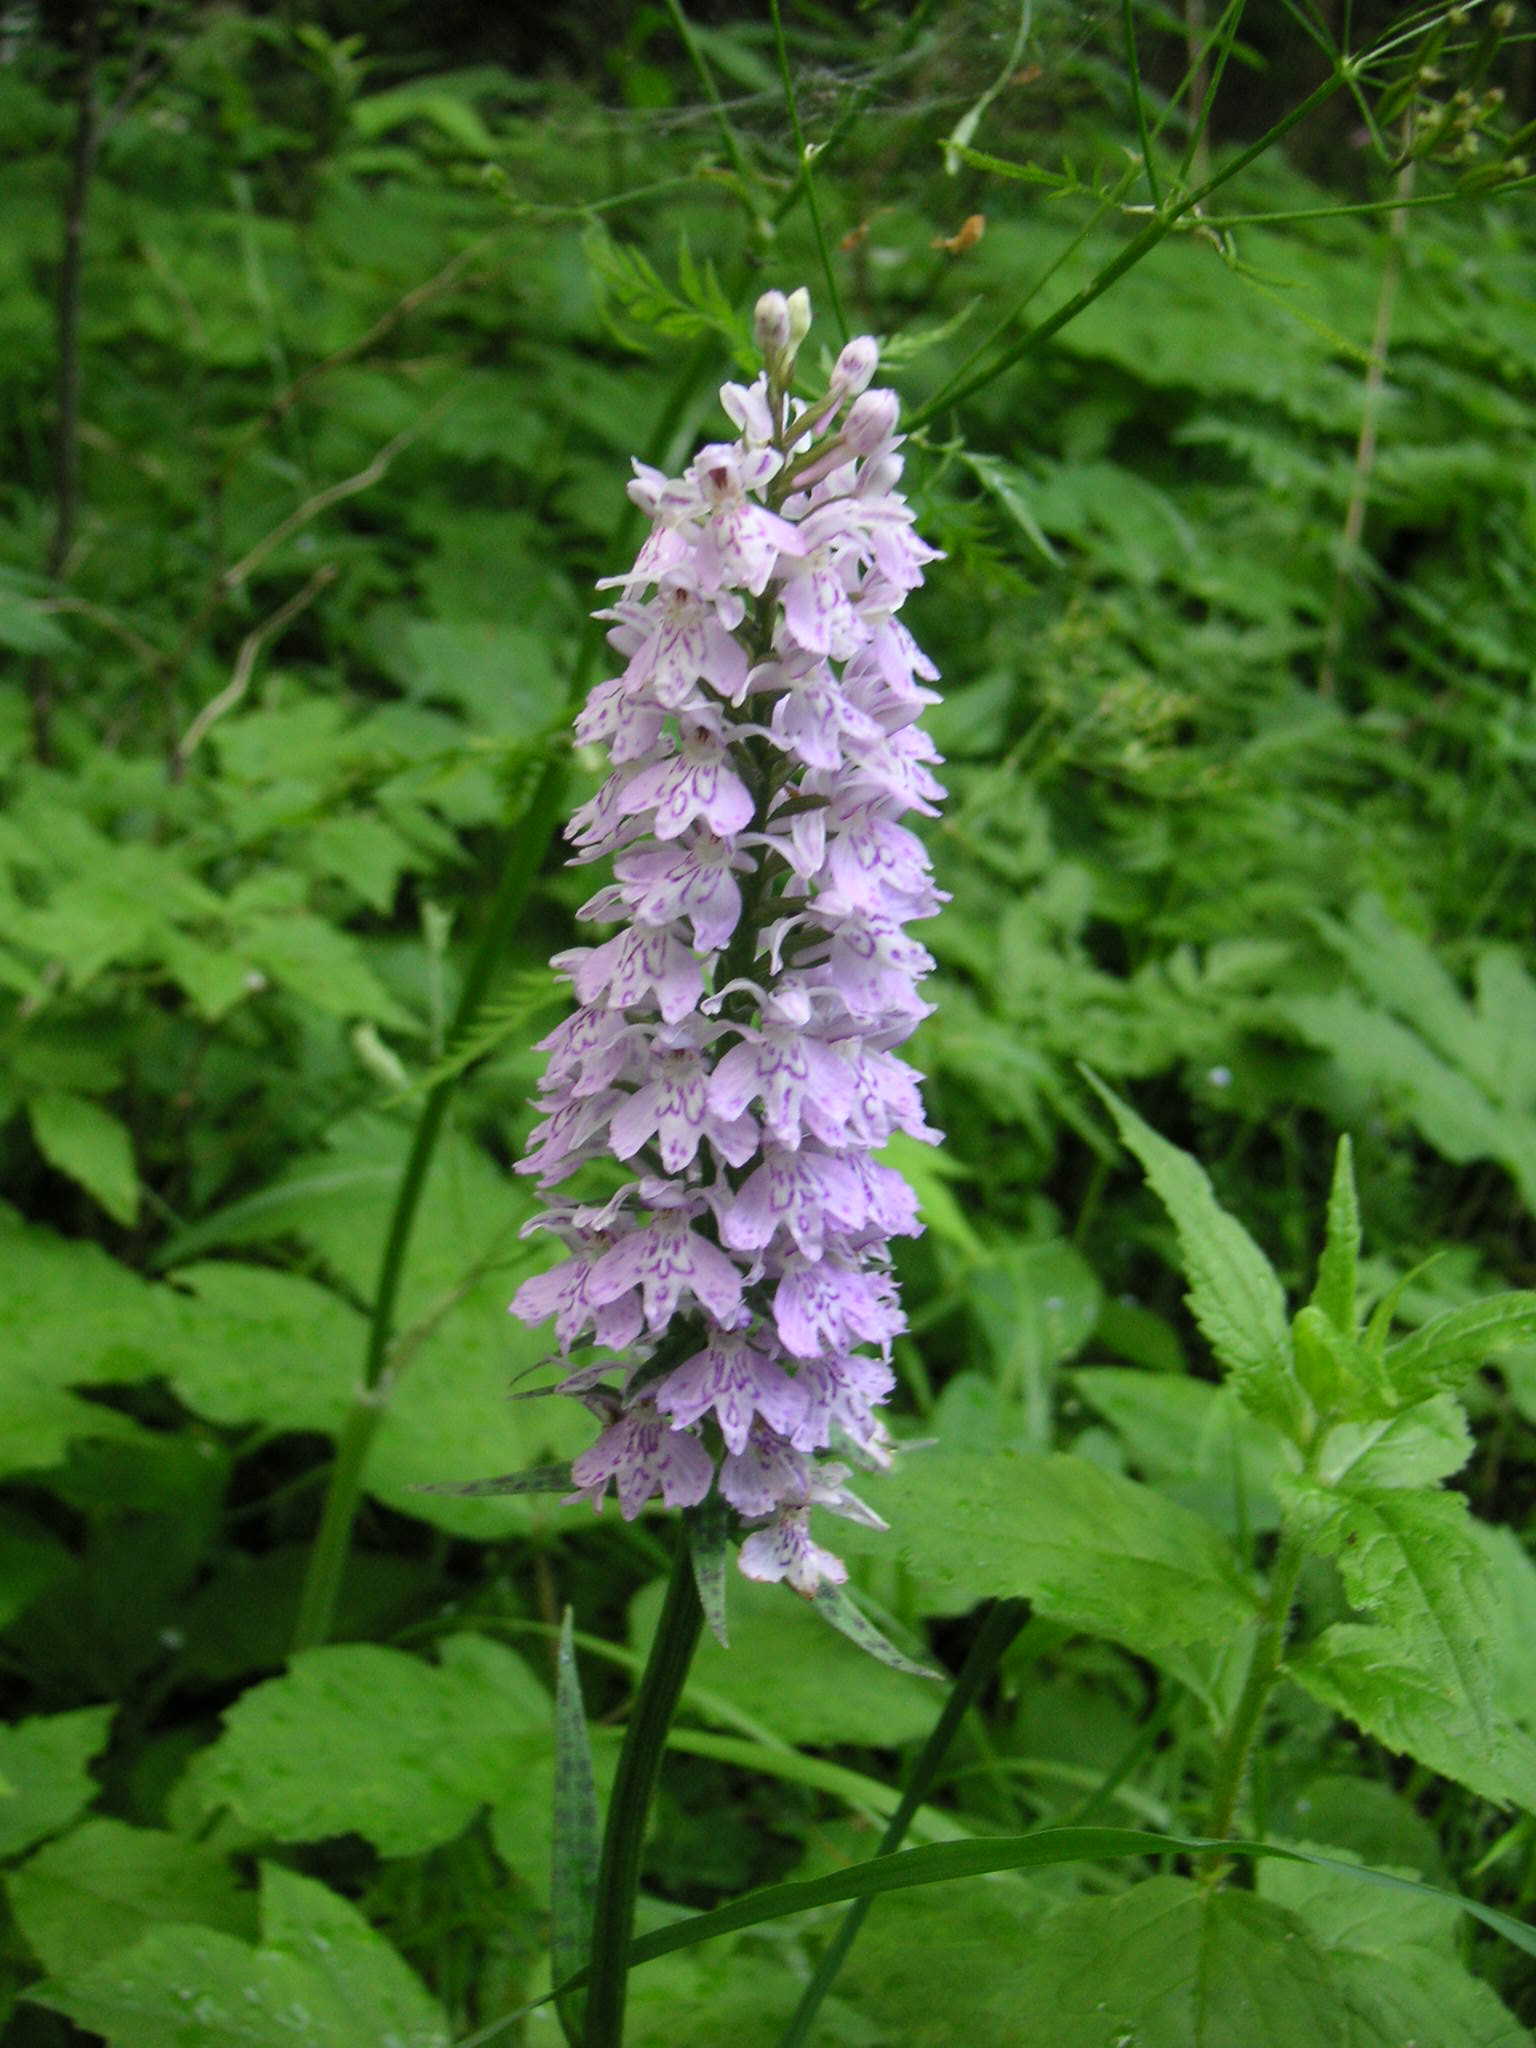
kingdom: Plantae
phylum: Tracheophyta
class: Liliopsida
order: Asparagales
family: Orchidaceae
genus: Dactylorhiza
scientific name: Dactylorhiza maculata
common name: Heath spotted-orchid
